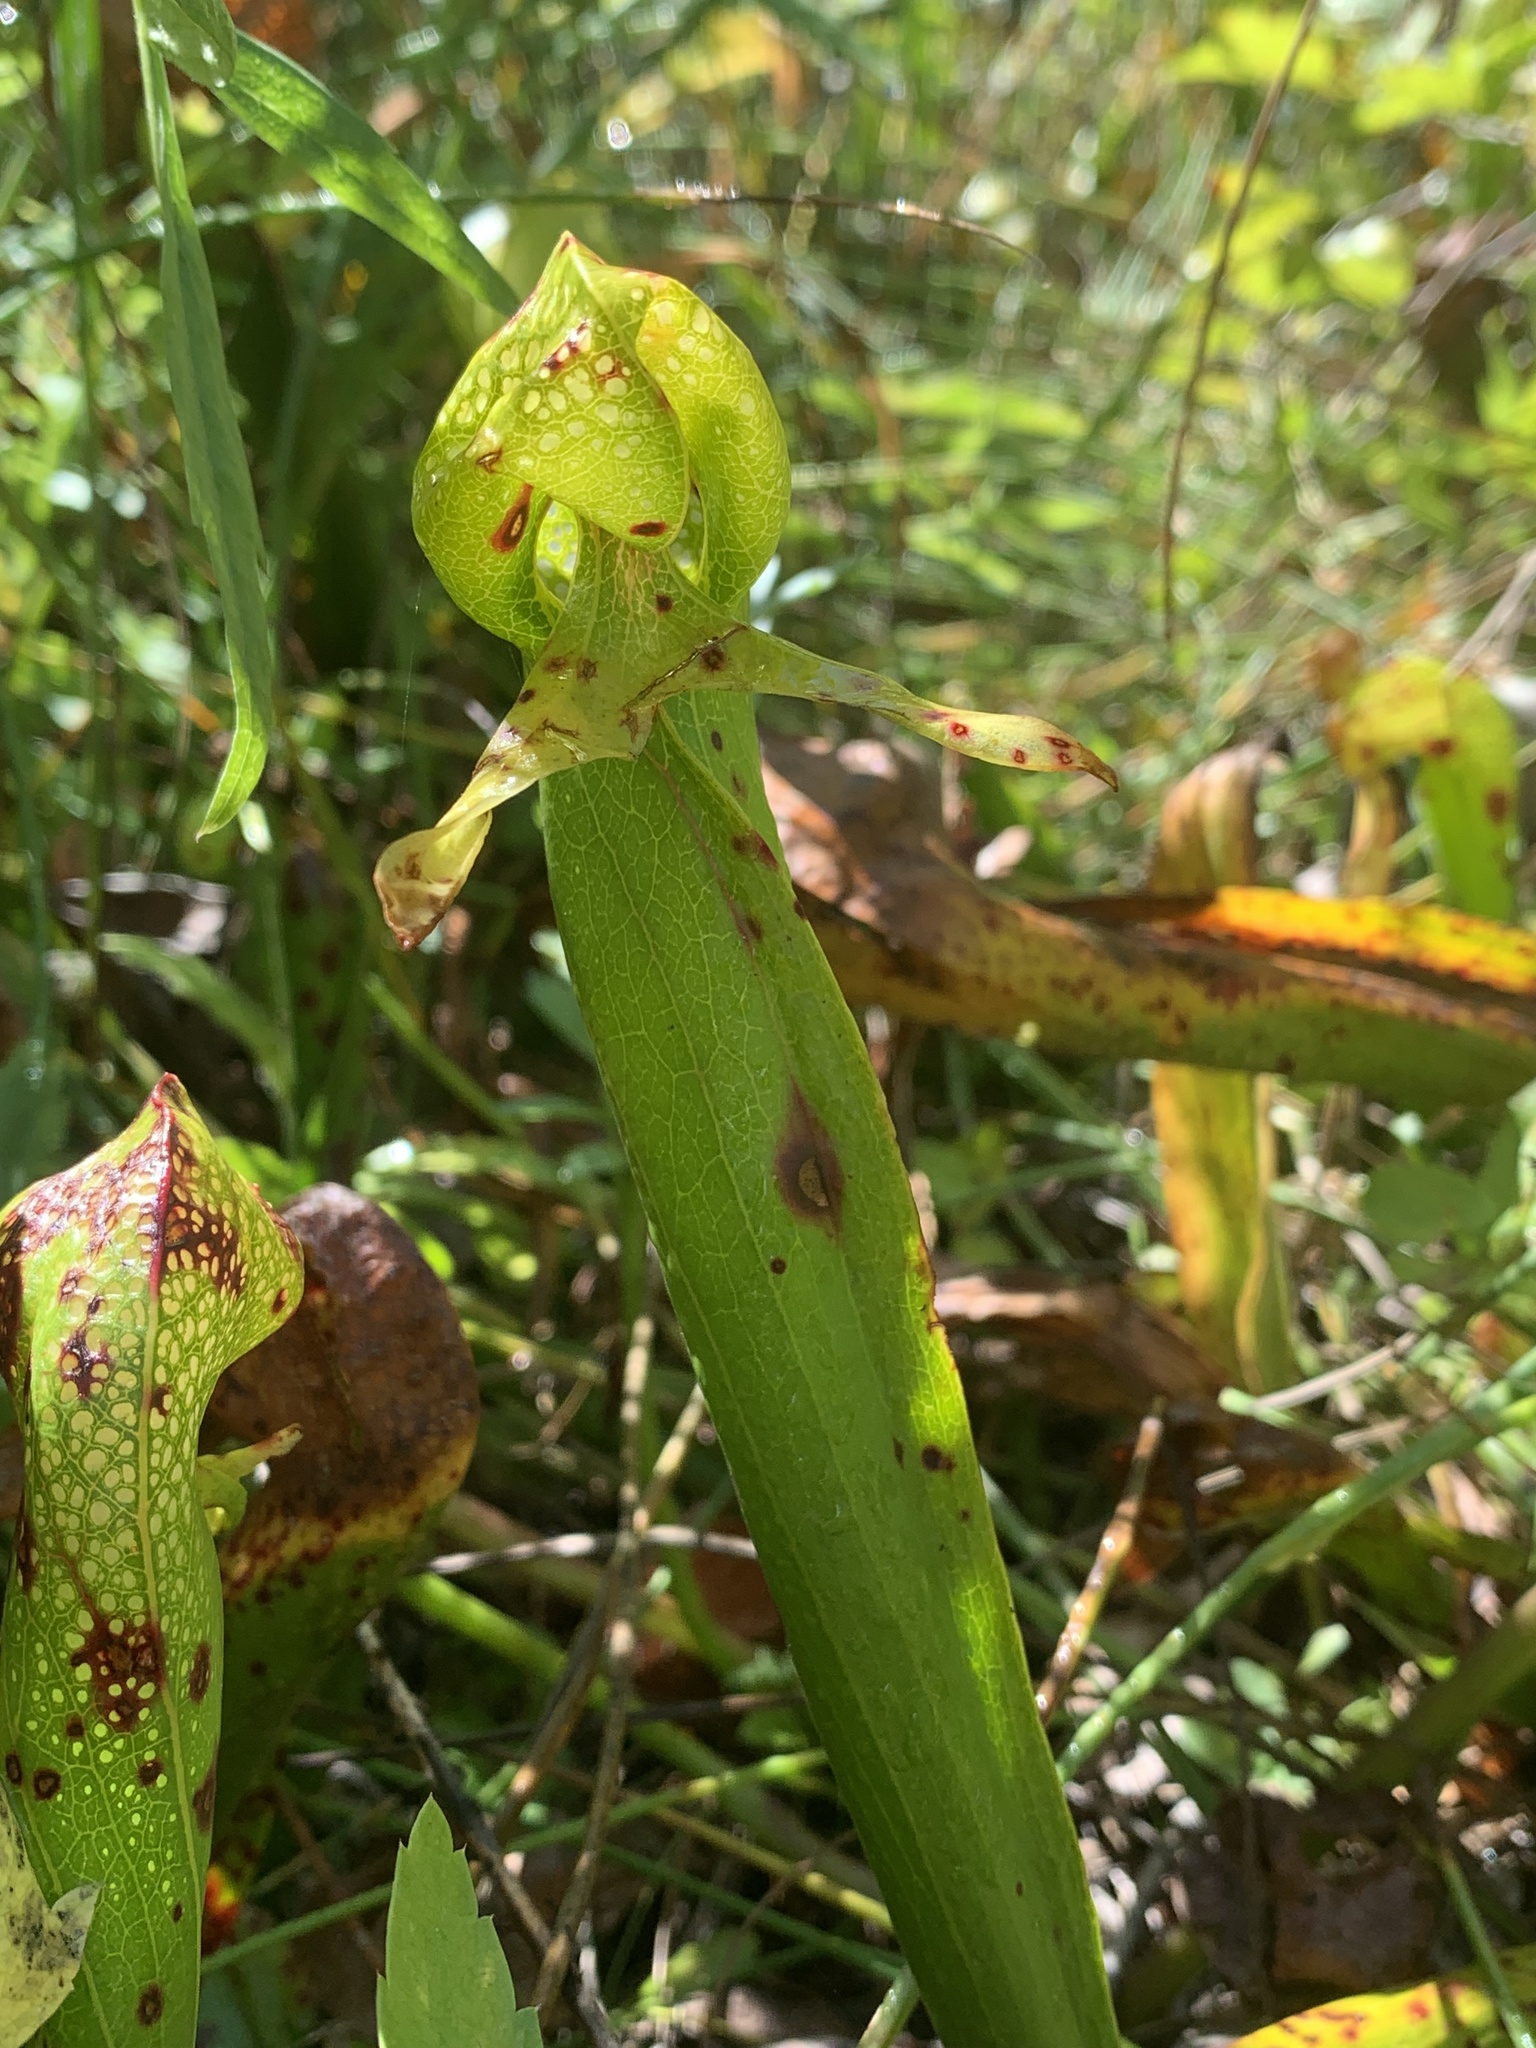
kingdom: Plantae
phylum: Tracheophyta
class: Magnoliopsida
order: Ericales
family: Sarraceniaceae
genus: Darlingtonia
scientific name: Darlingtonia californica
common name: California pitcher plant
